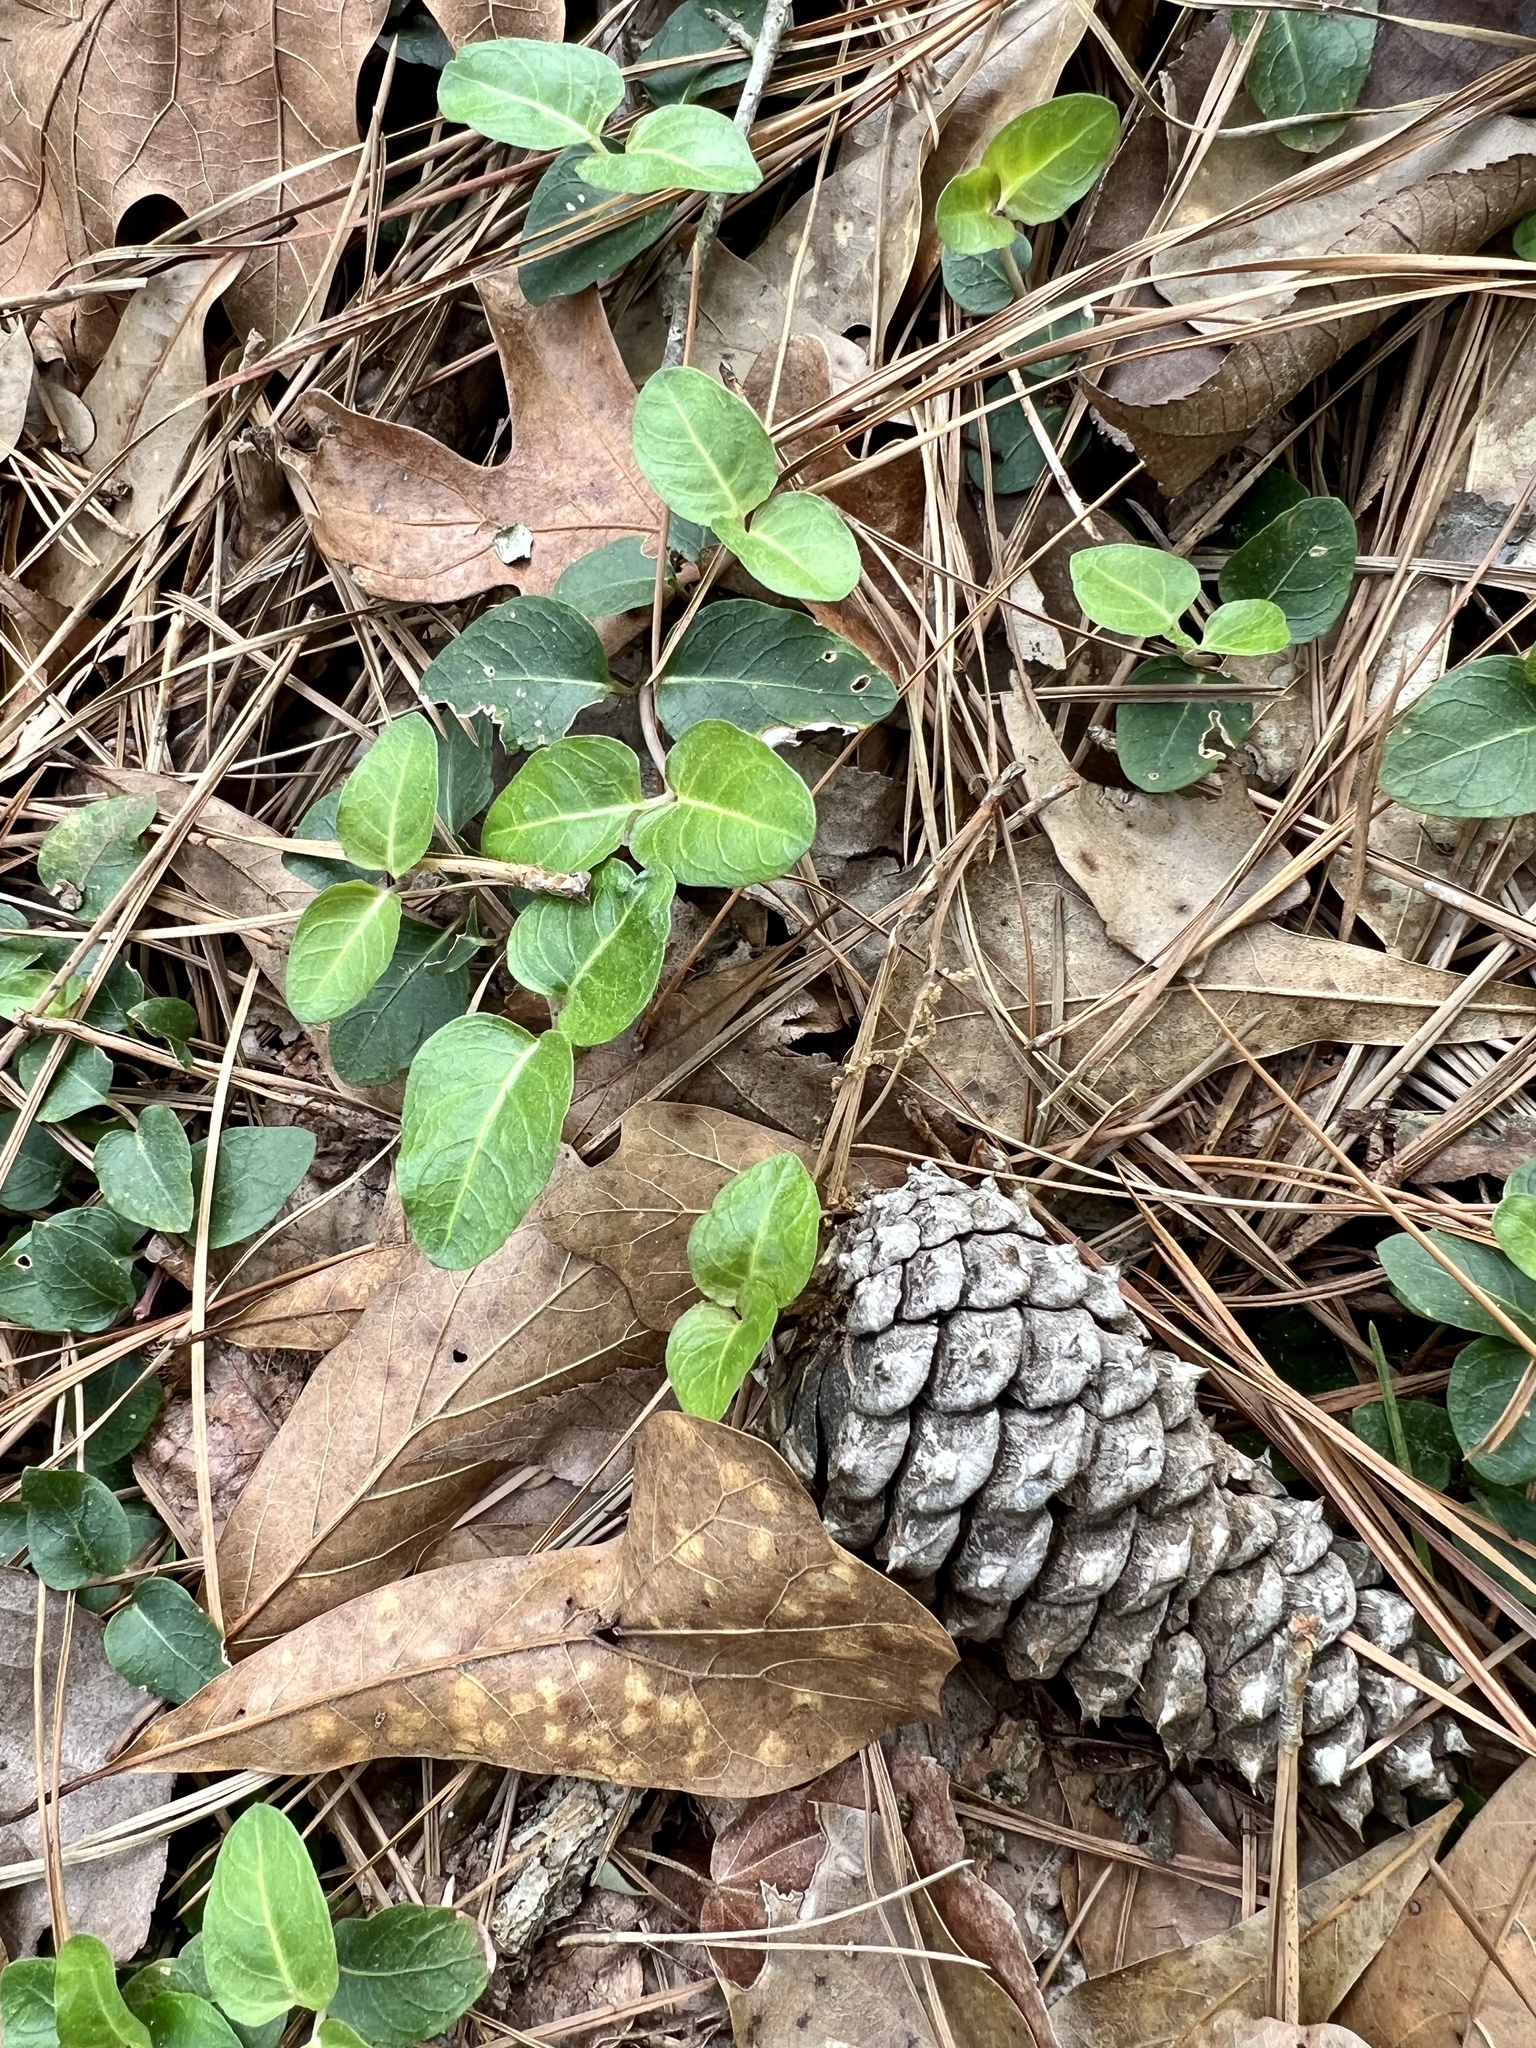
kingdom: Plantae
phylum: Tracheophyta
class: Magnoliopsida
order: Gentianales
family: Rubiaceae
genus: Mitchella
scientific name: Mitchella repens
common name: Partridge-berry
